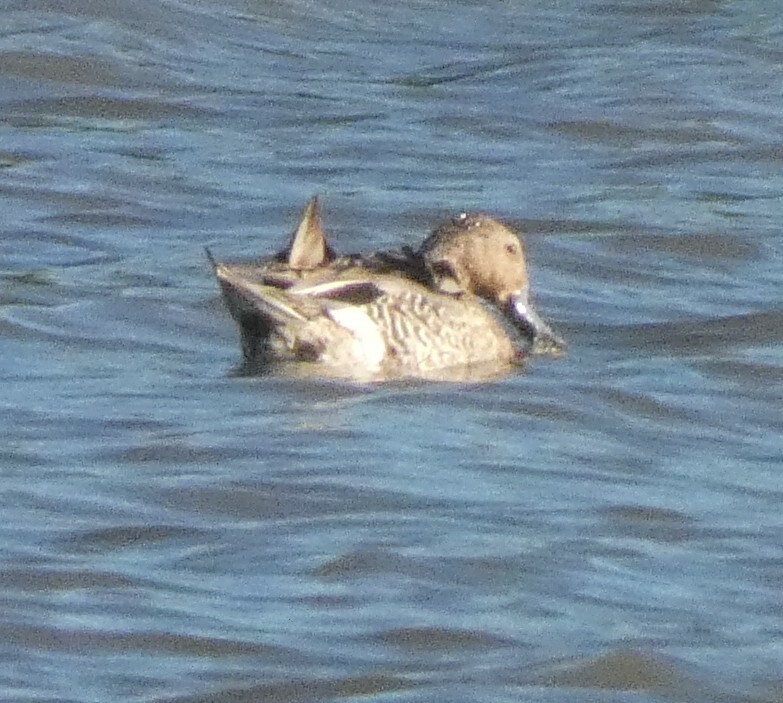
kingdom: Animalia
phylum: Chordata
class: Aves
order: Anseriformes
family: Anatidae
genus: Anas
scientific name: Anas acuta
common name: Northern pintail
